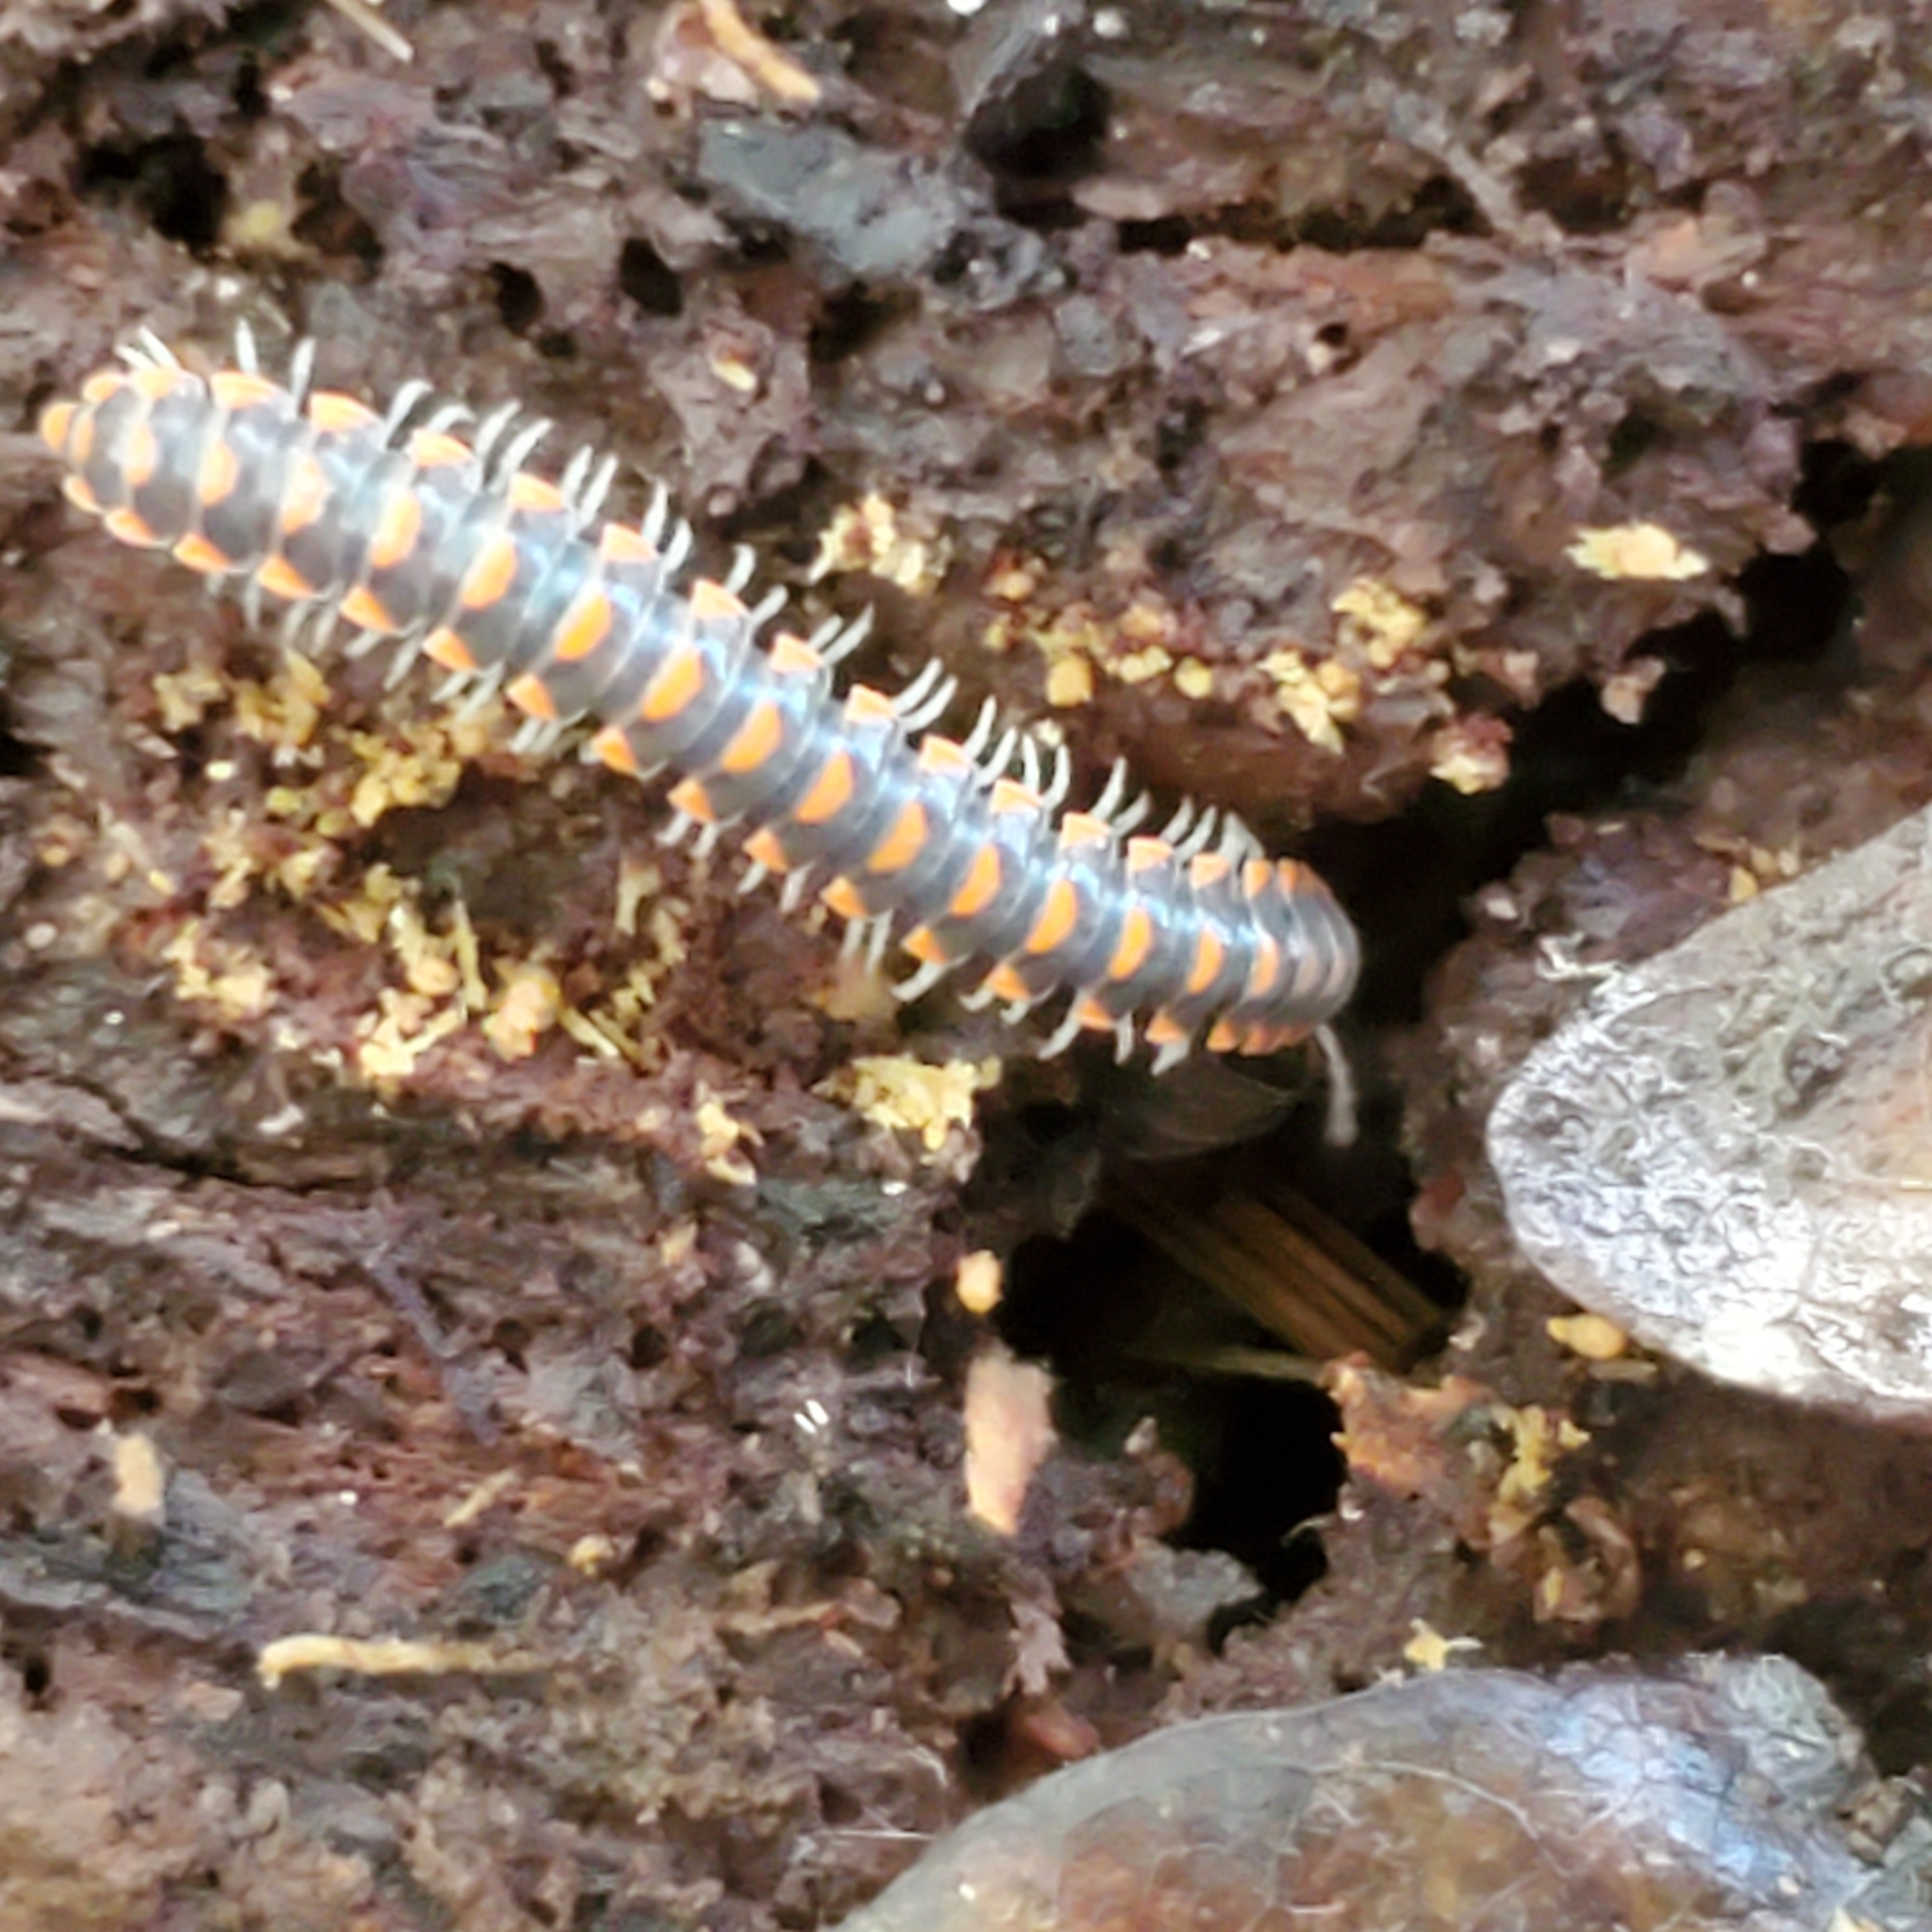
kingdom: Animalia
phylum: Arthropoda
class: Diplopoda
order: Polydesmida
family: Xystodesmidae
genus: Euryurus
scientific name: Euryurus leachii
